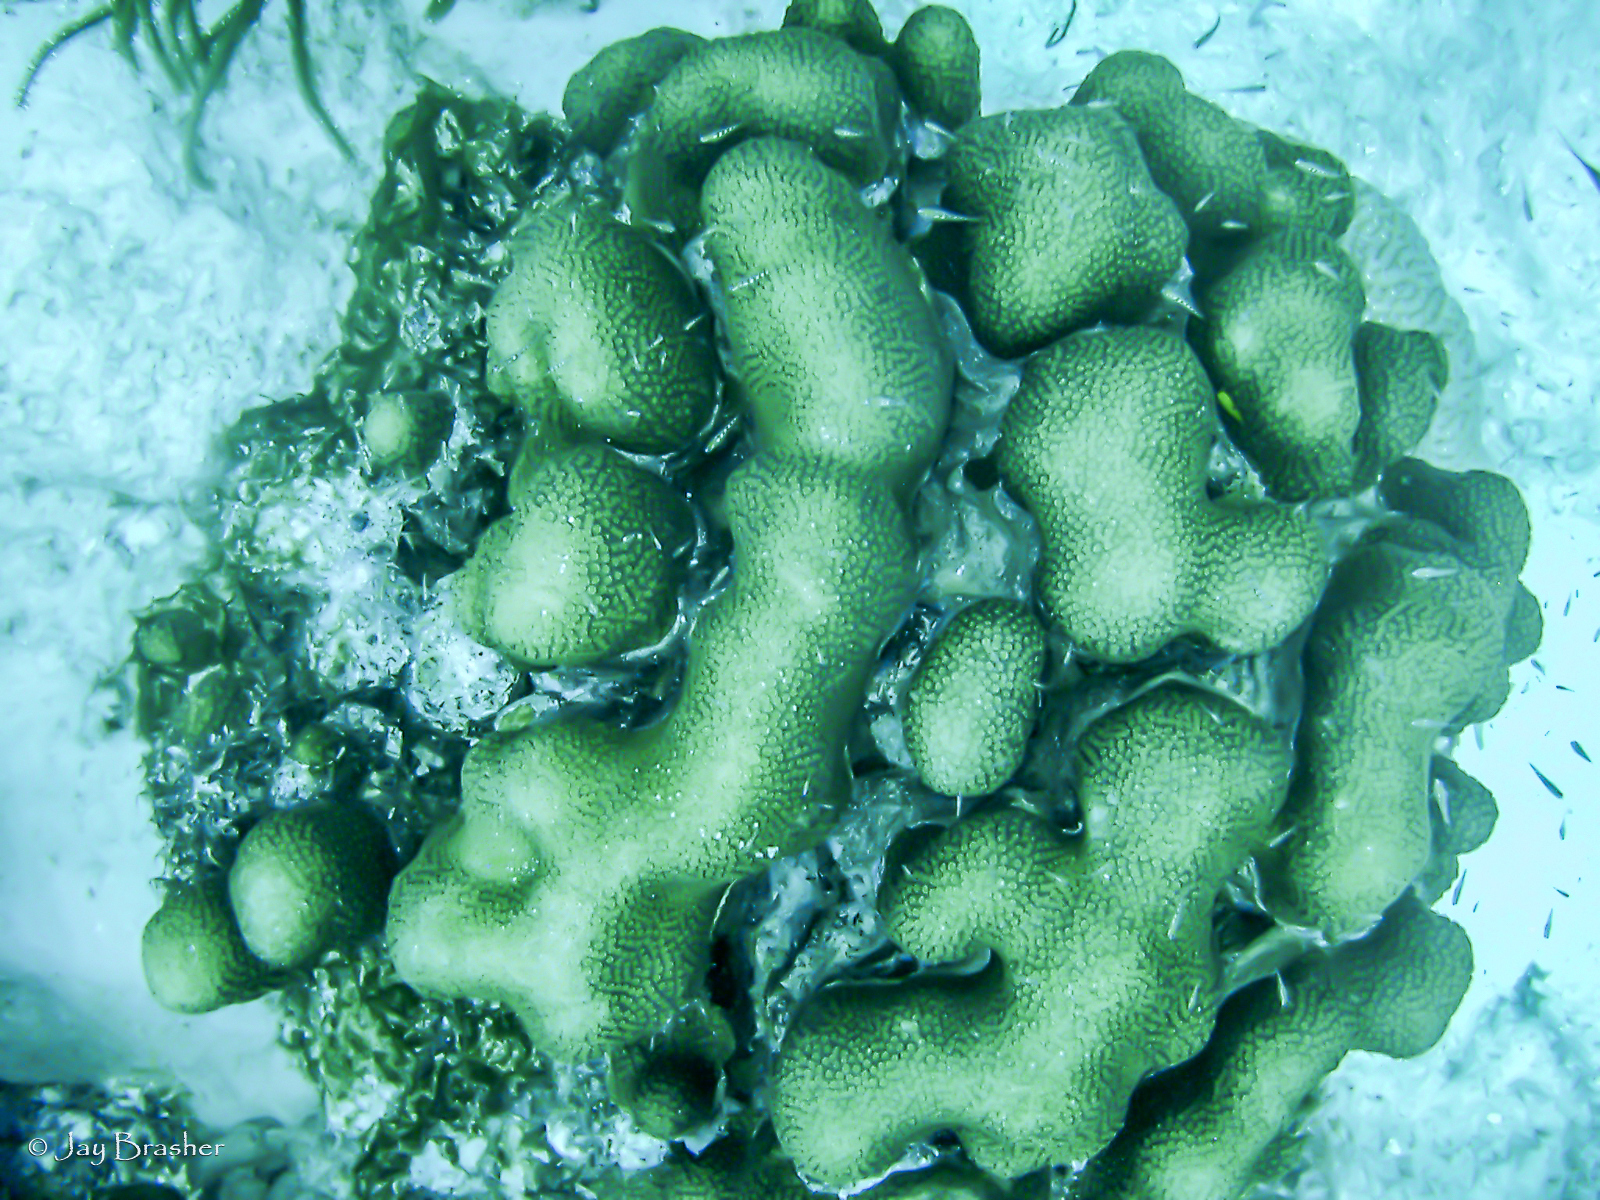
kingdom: Animalia
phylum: Cnidaria
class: Anthozoa
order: Scleractinia
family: Merulinidae
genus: Orbicella
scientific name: Orbicella annularis
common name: Boulder star coral
